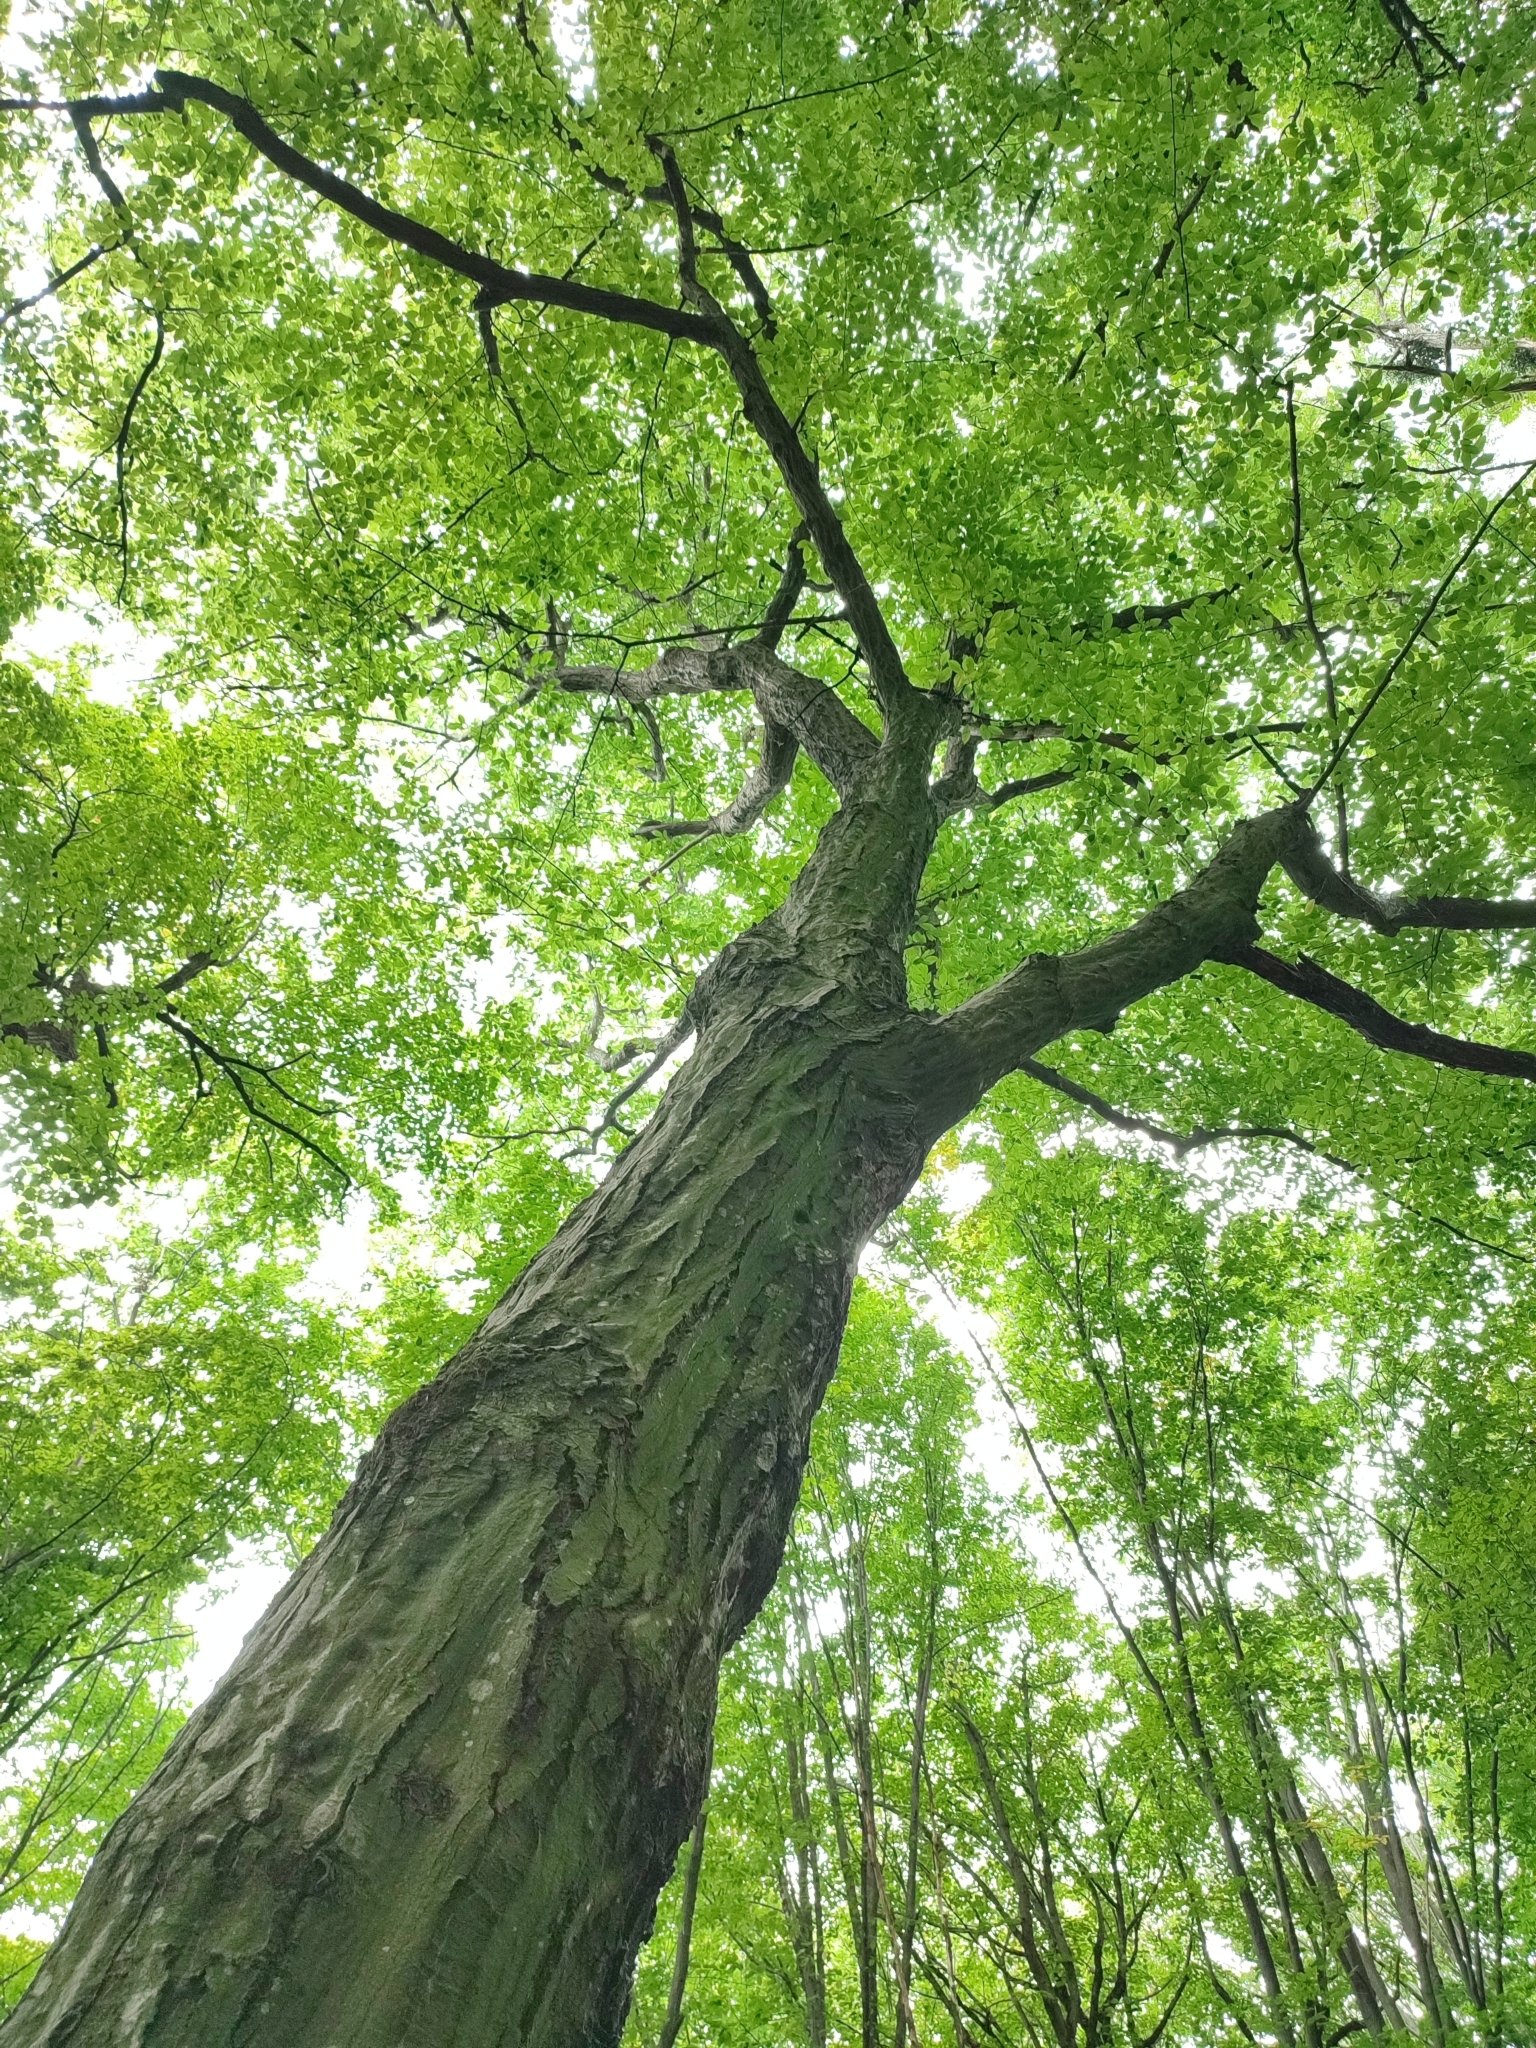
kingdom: Plantae
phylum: Tracheophyta
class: Magnoliopsida
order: Fagales
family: Betulaceae
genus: Carpinus
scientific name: Carpinus betulus
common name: Hornbeam
